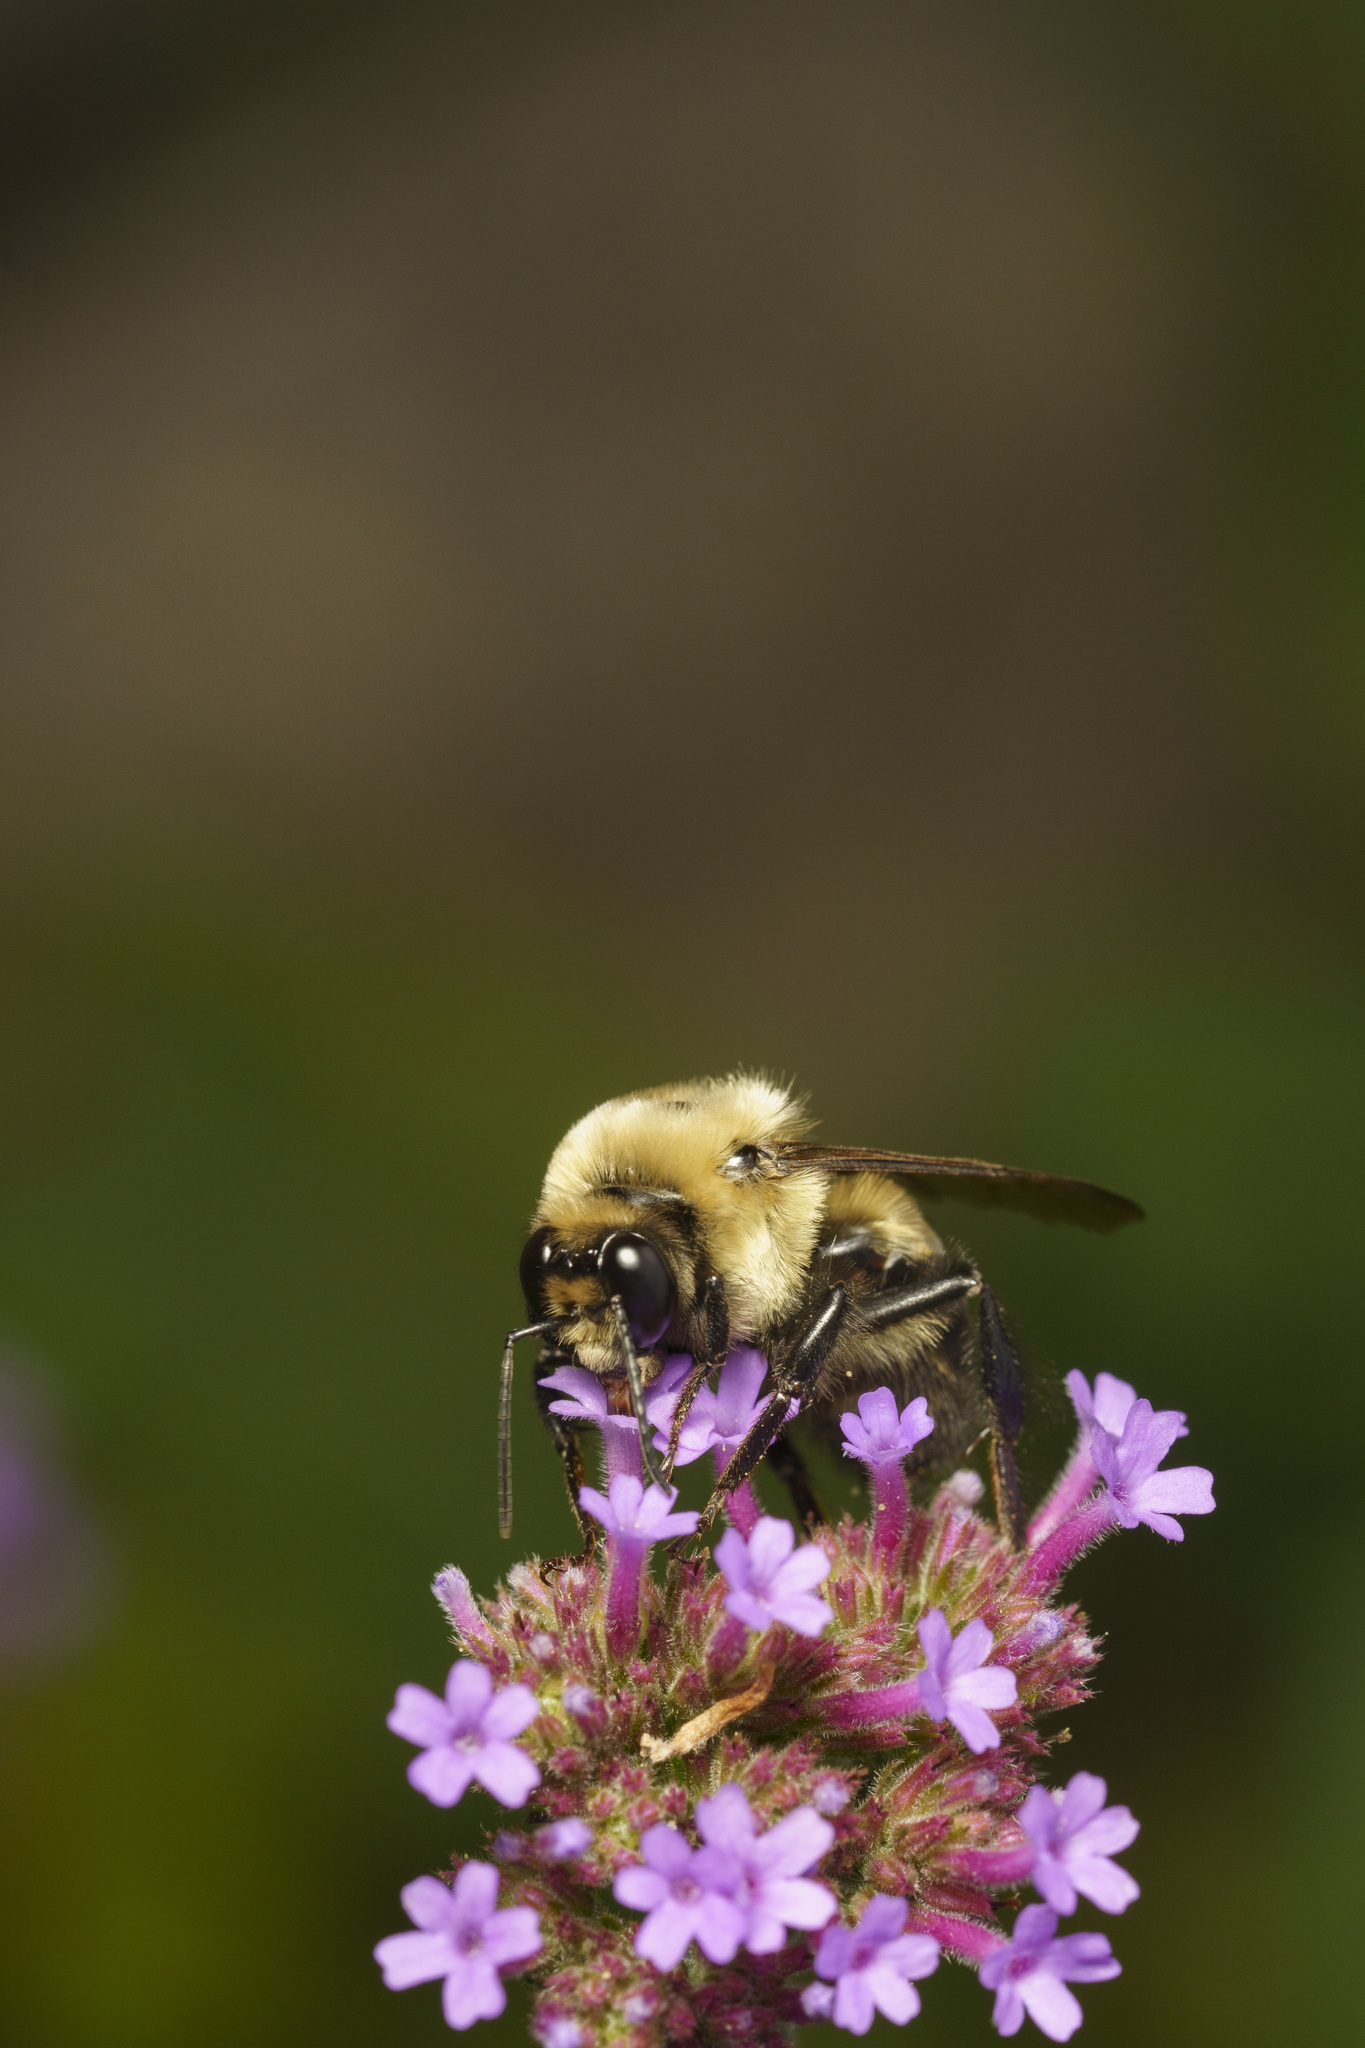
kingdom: Animalia
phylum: Arthropoda
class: Insecta
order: Hymenoptera
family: Apidae
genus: Bombus
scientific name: Bombus griseocollis
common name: Brown-belted bumble bee
